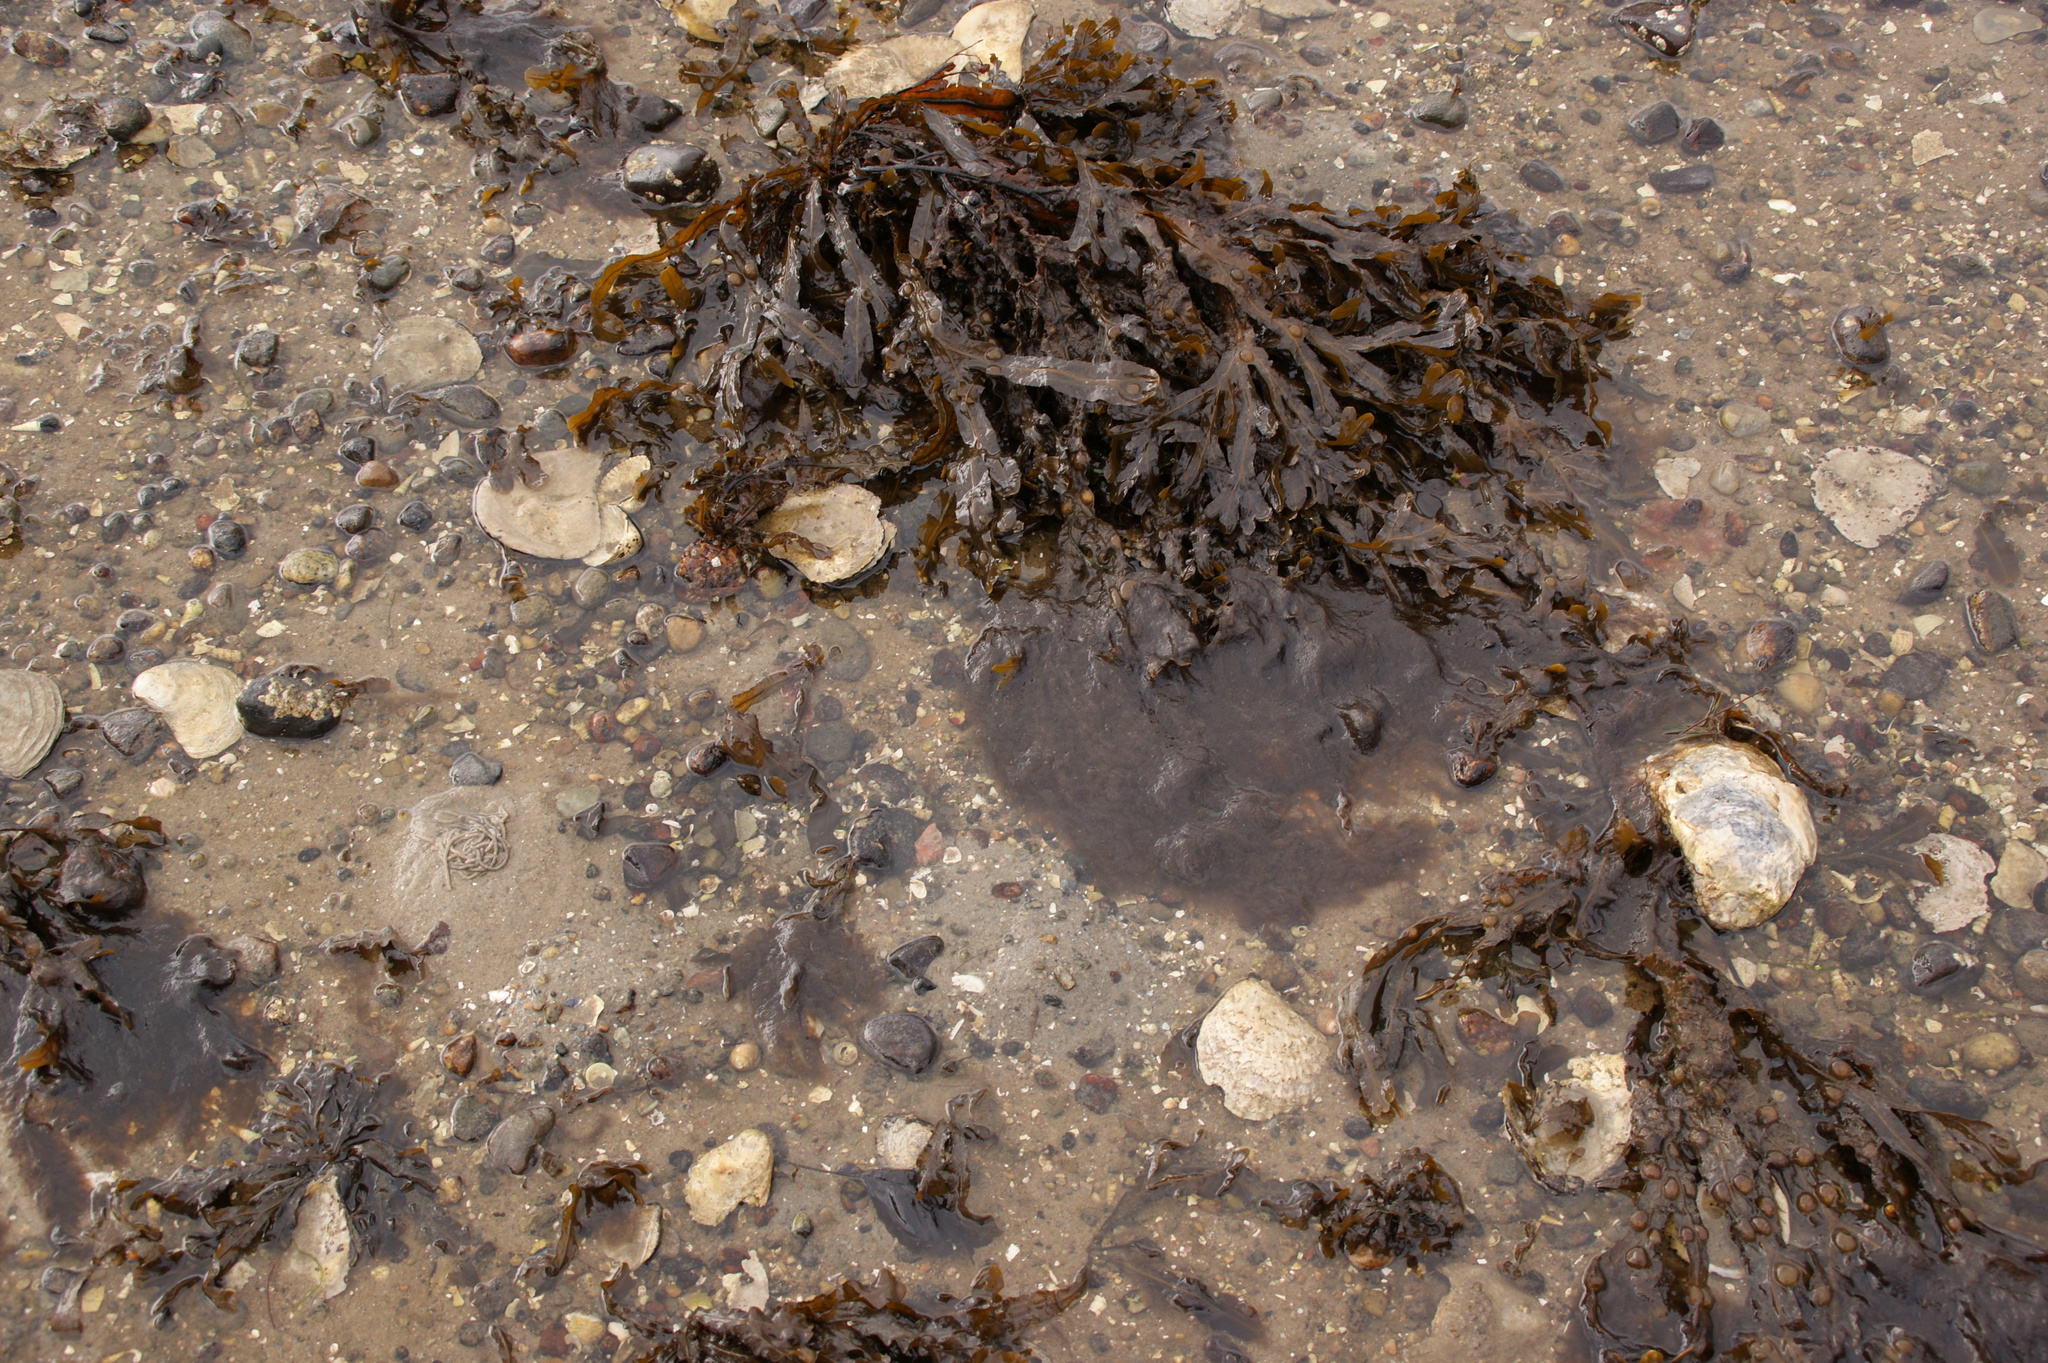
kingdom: Chromista
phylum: Ochrophyta
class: Phaeophyceae
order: Fucales
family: Fucaceae
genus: Fucus
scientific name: Fucus vesiculosus
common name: Bladder wrack
